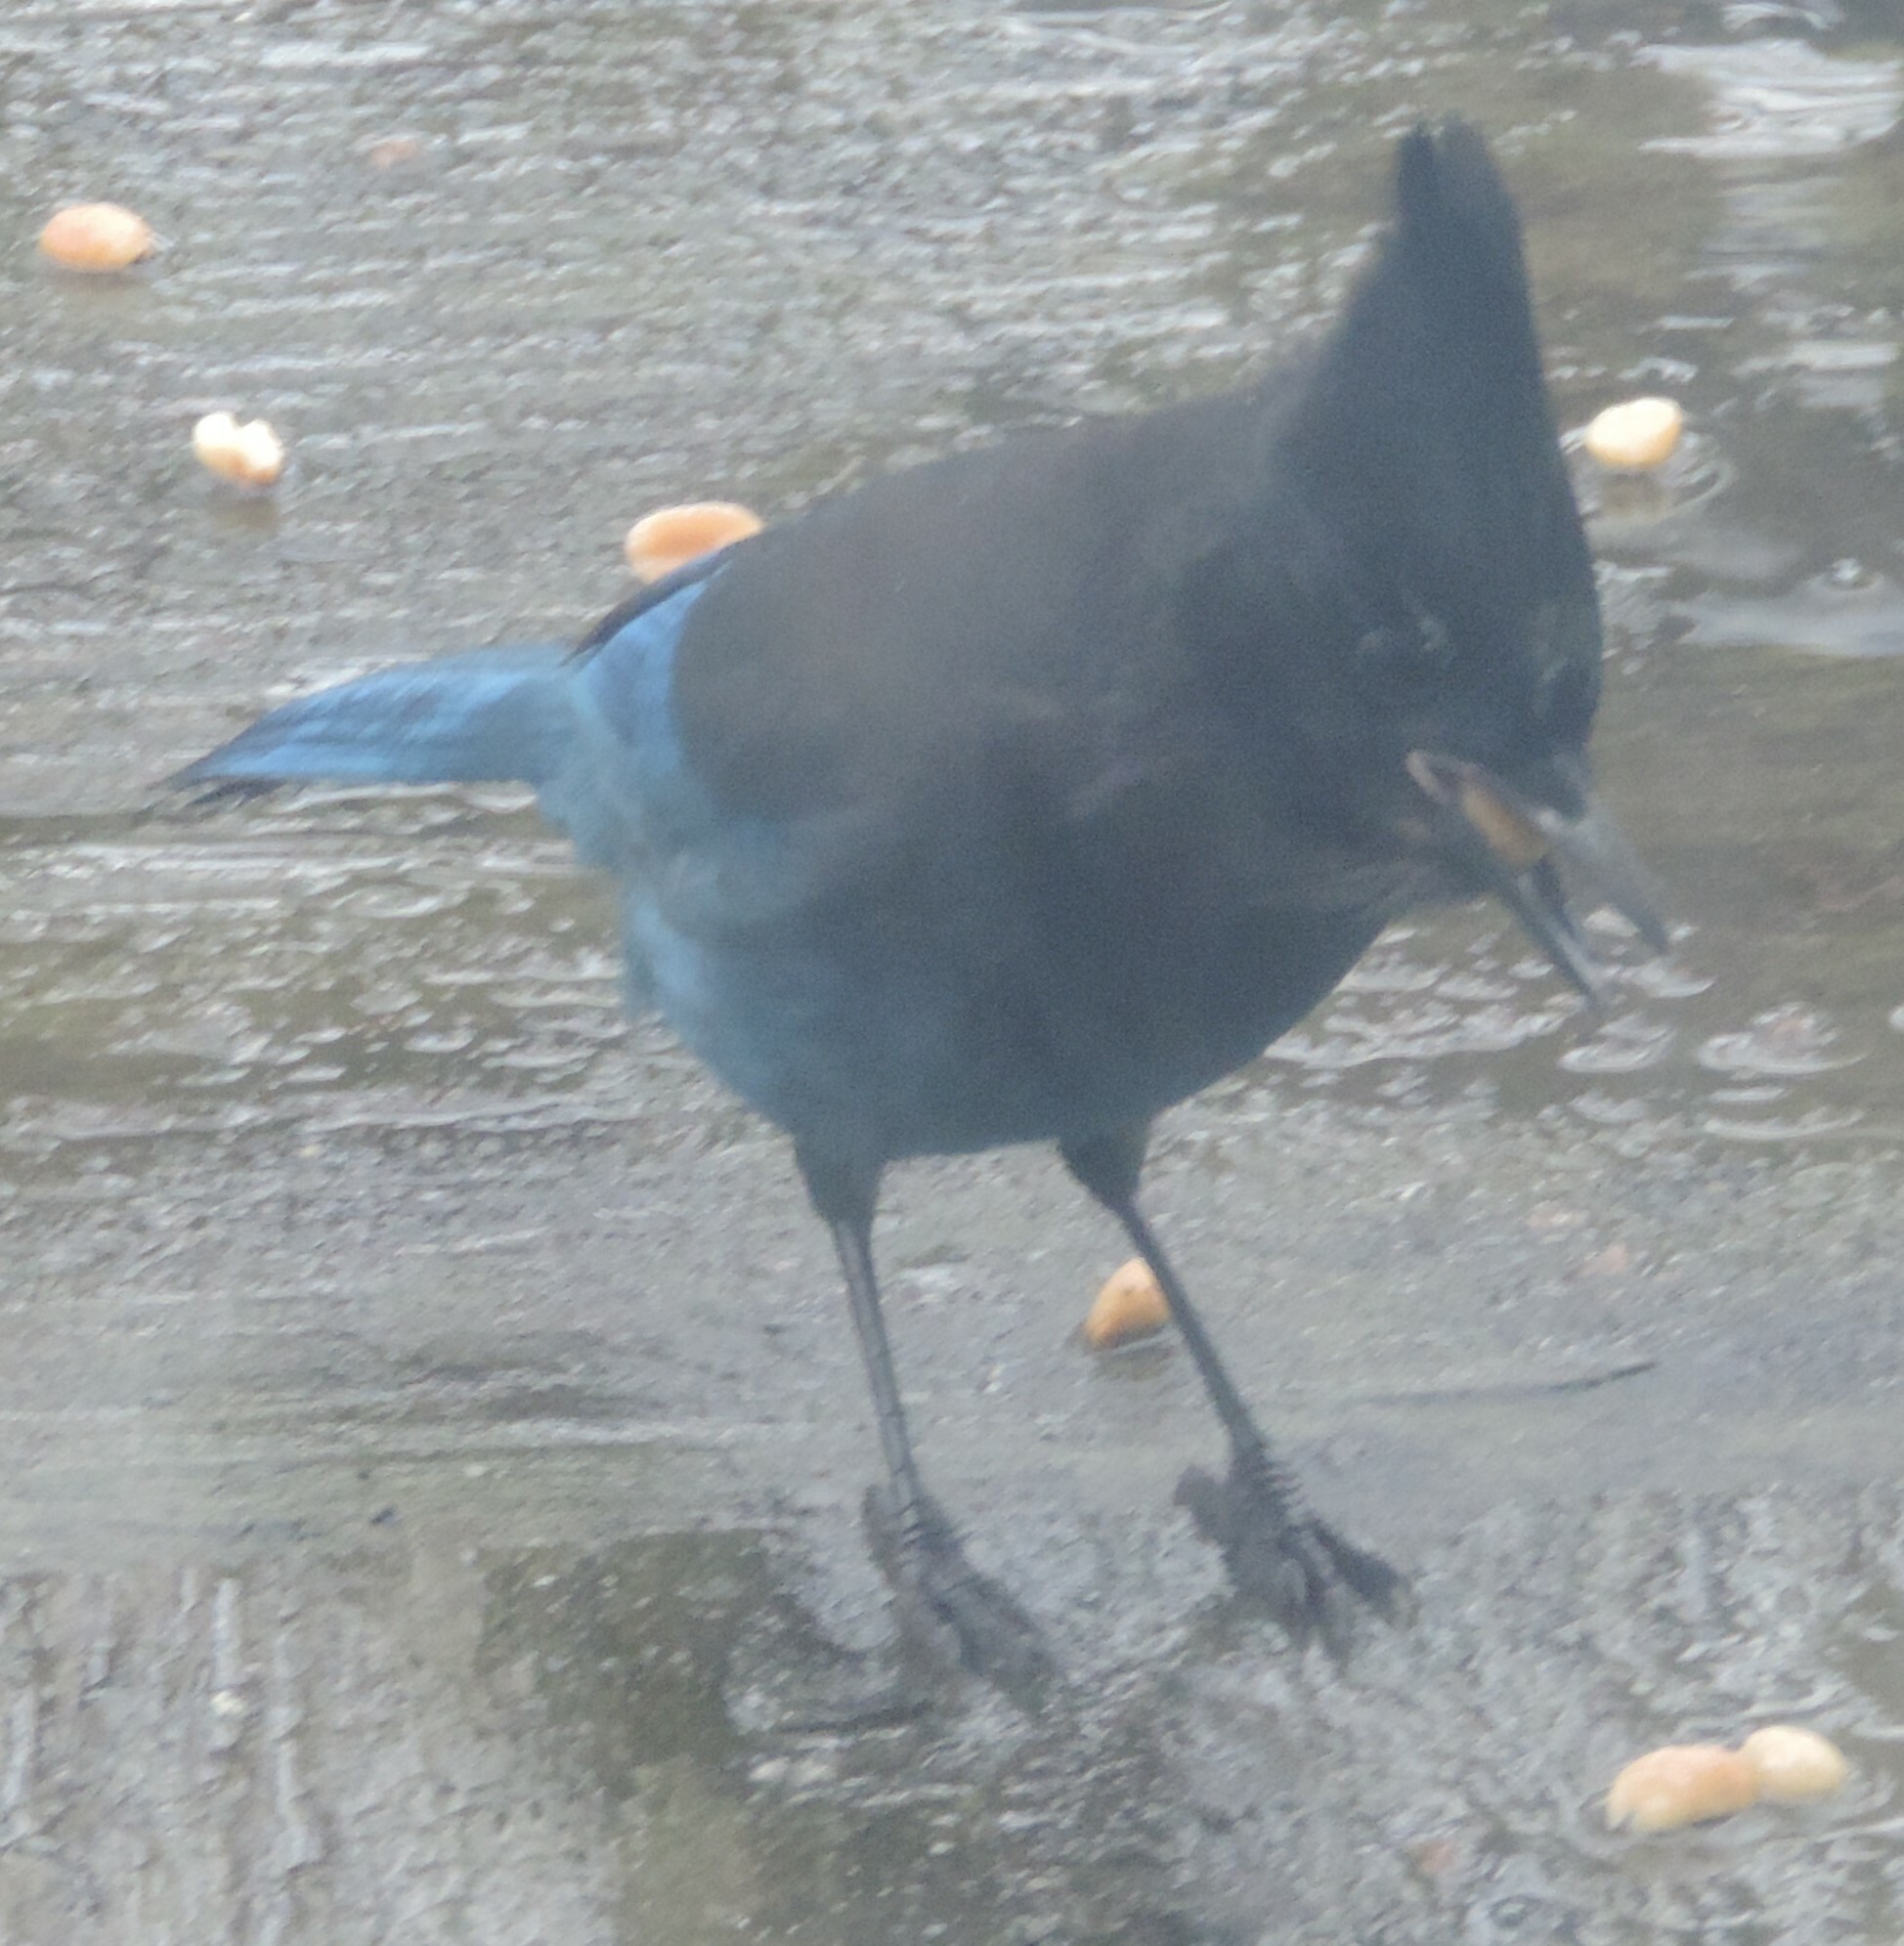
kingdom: Animalia
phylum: Chordata
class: Aves
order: Passeriformes
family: Corvidae
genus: Cyanocitta
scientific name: Cyanocitta stelleri
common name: Steller's jay
